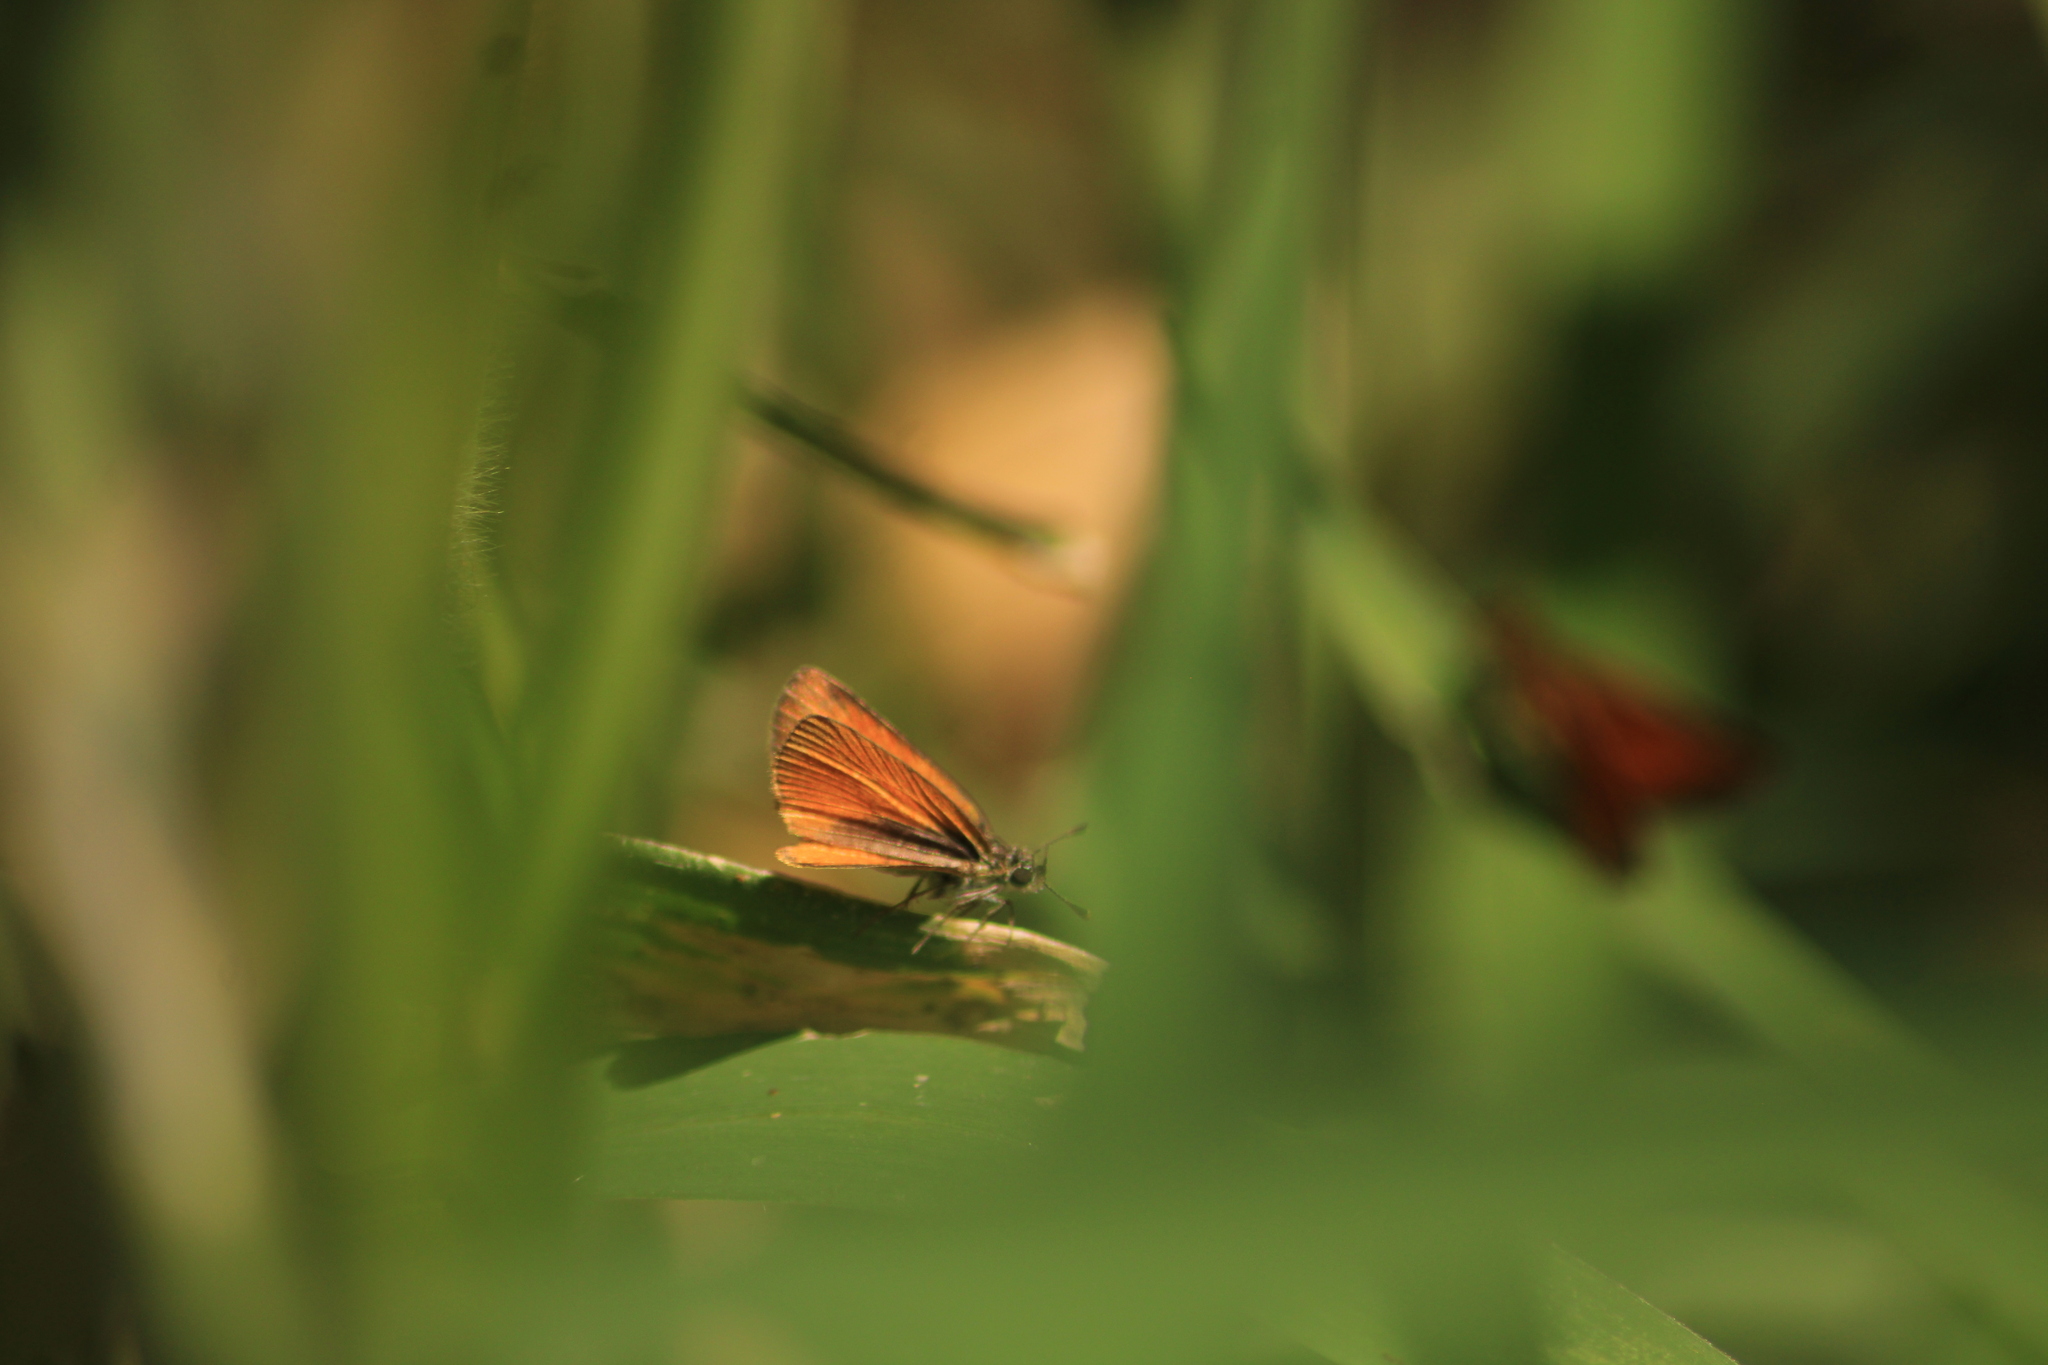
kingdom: Animalia
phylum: Arthropoda
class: Insecta
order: Lepidoptera
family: Hesperiidae
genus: Ancyloxypha
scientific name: Ancyloxypha arene
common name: Tropical least skipper
